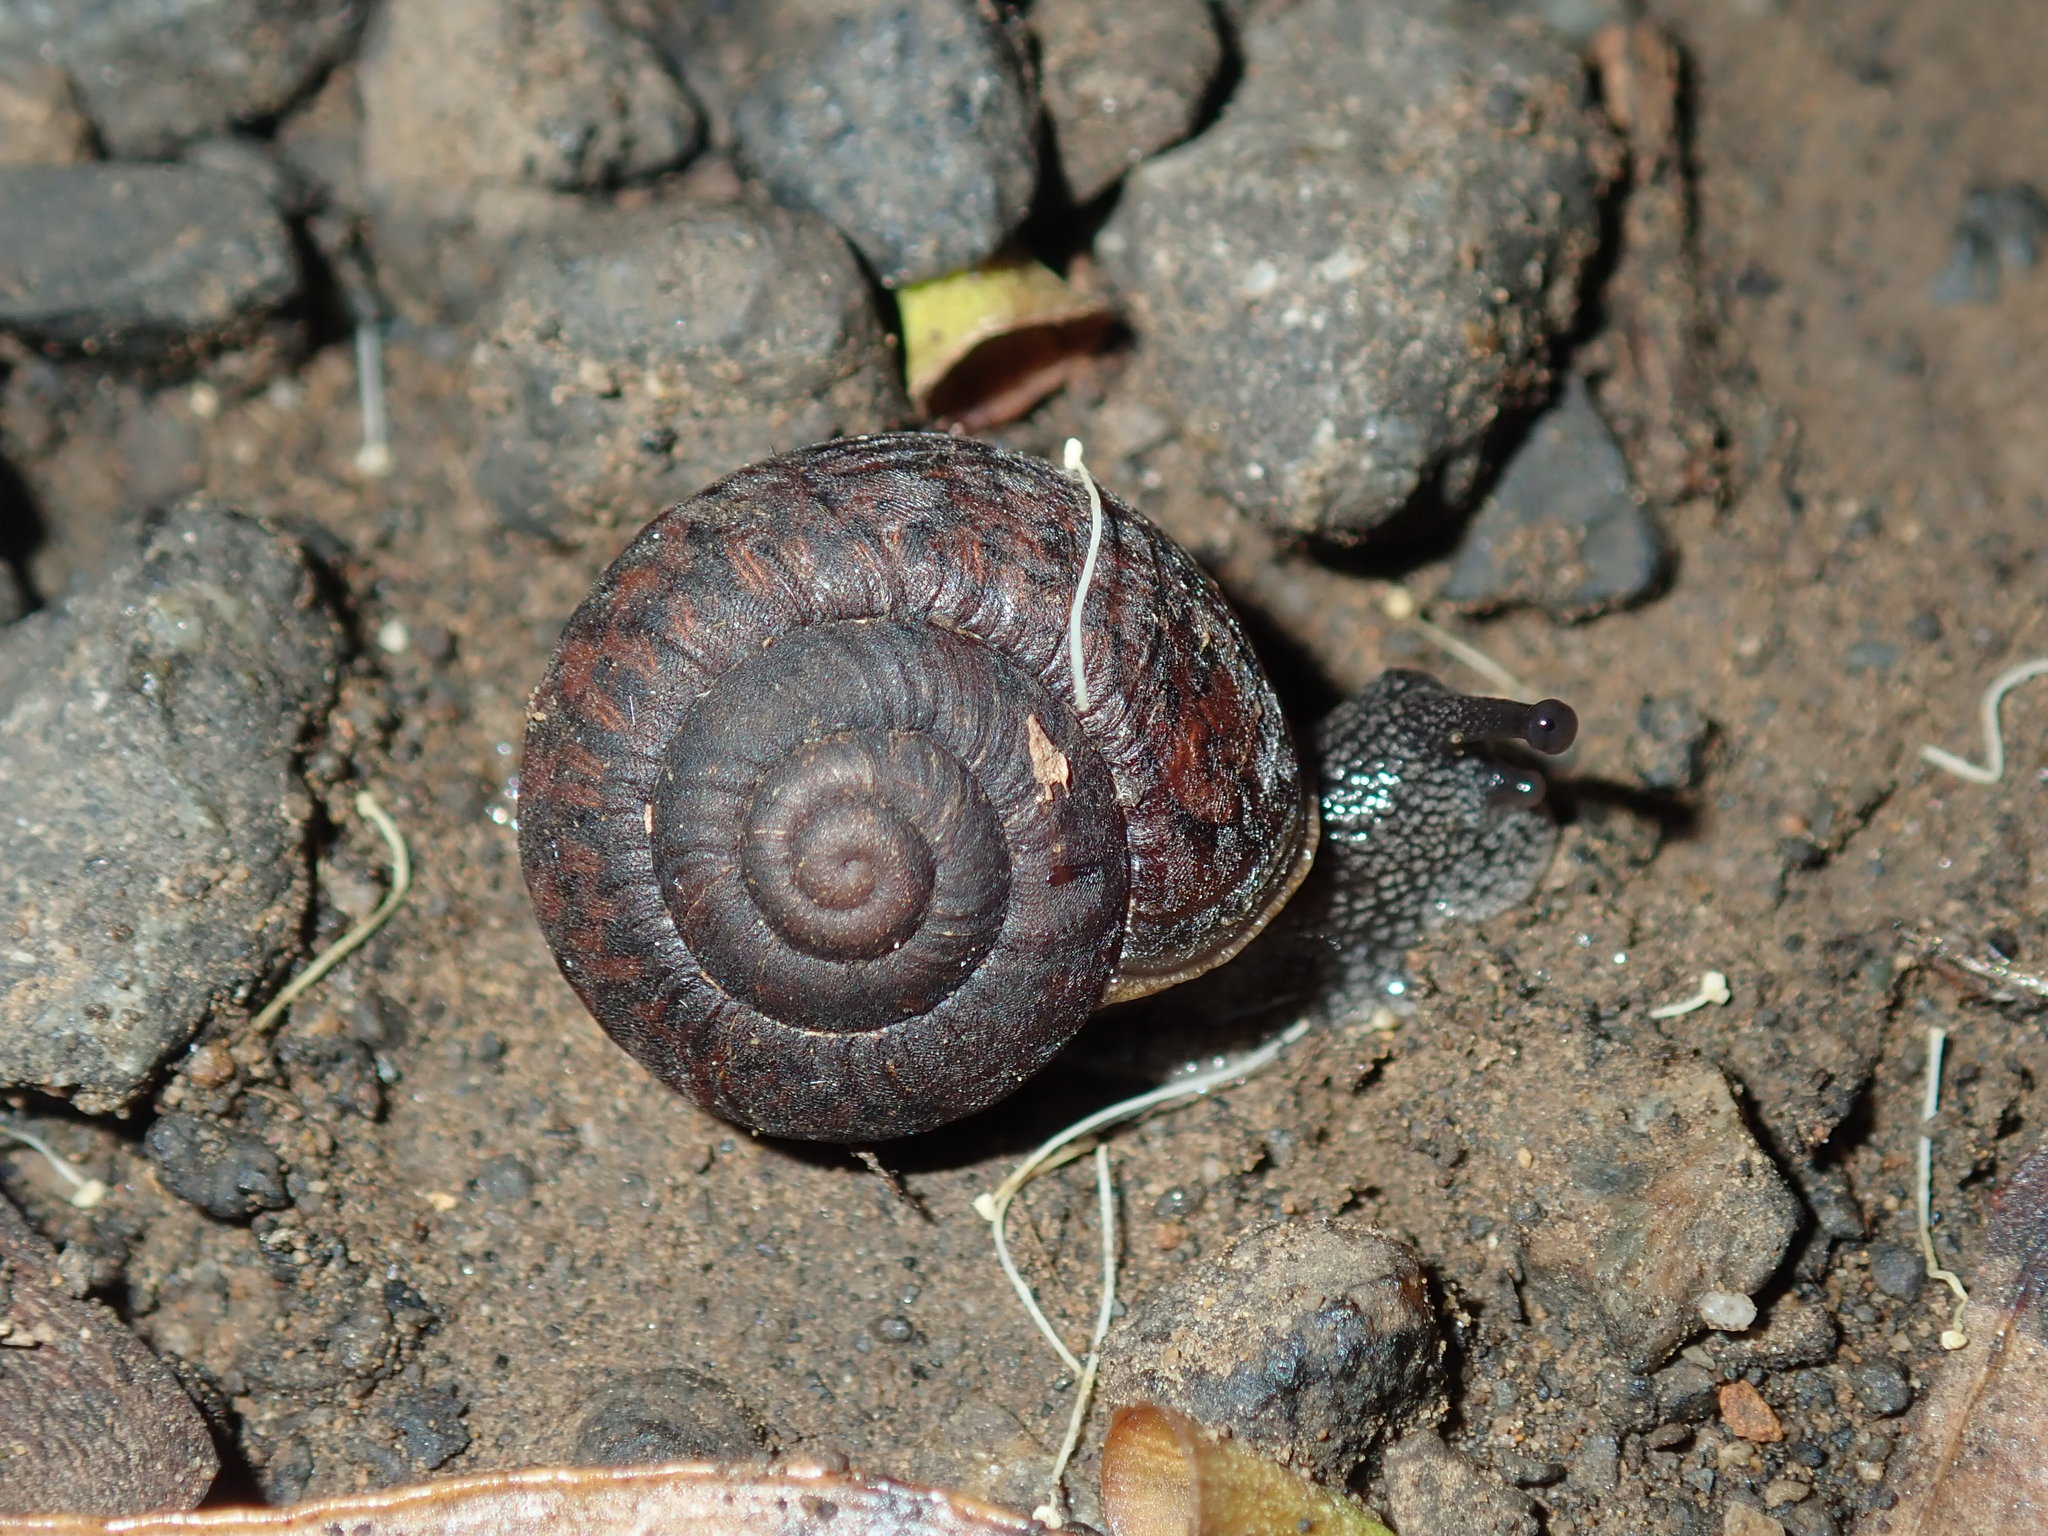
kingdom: Animalia
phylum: Mollusca
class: Gastropoda
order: Stylommatophora
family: Camaenidae
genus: Sauroconcha
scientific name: Sauroconcha sheai
